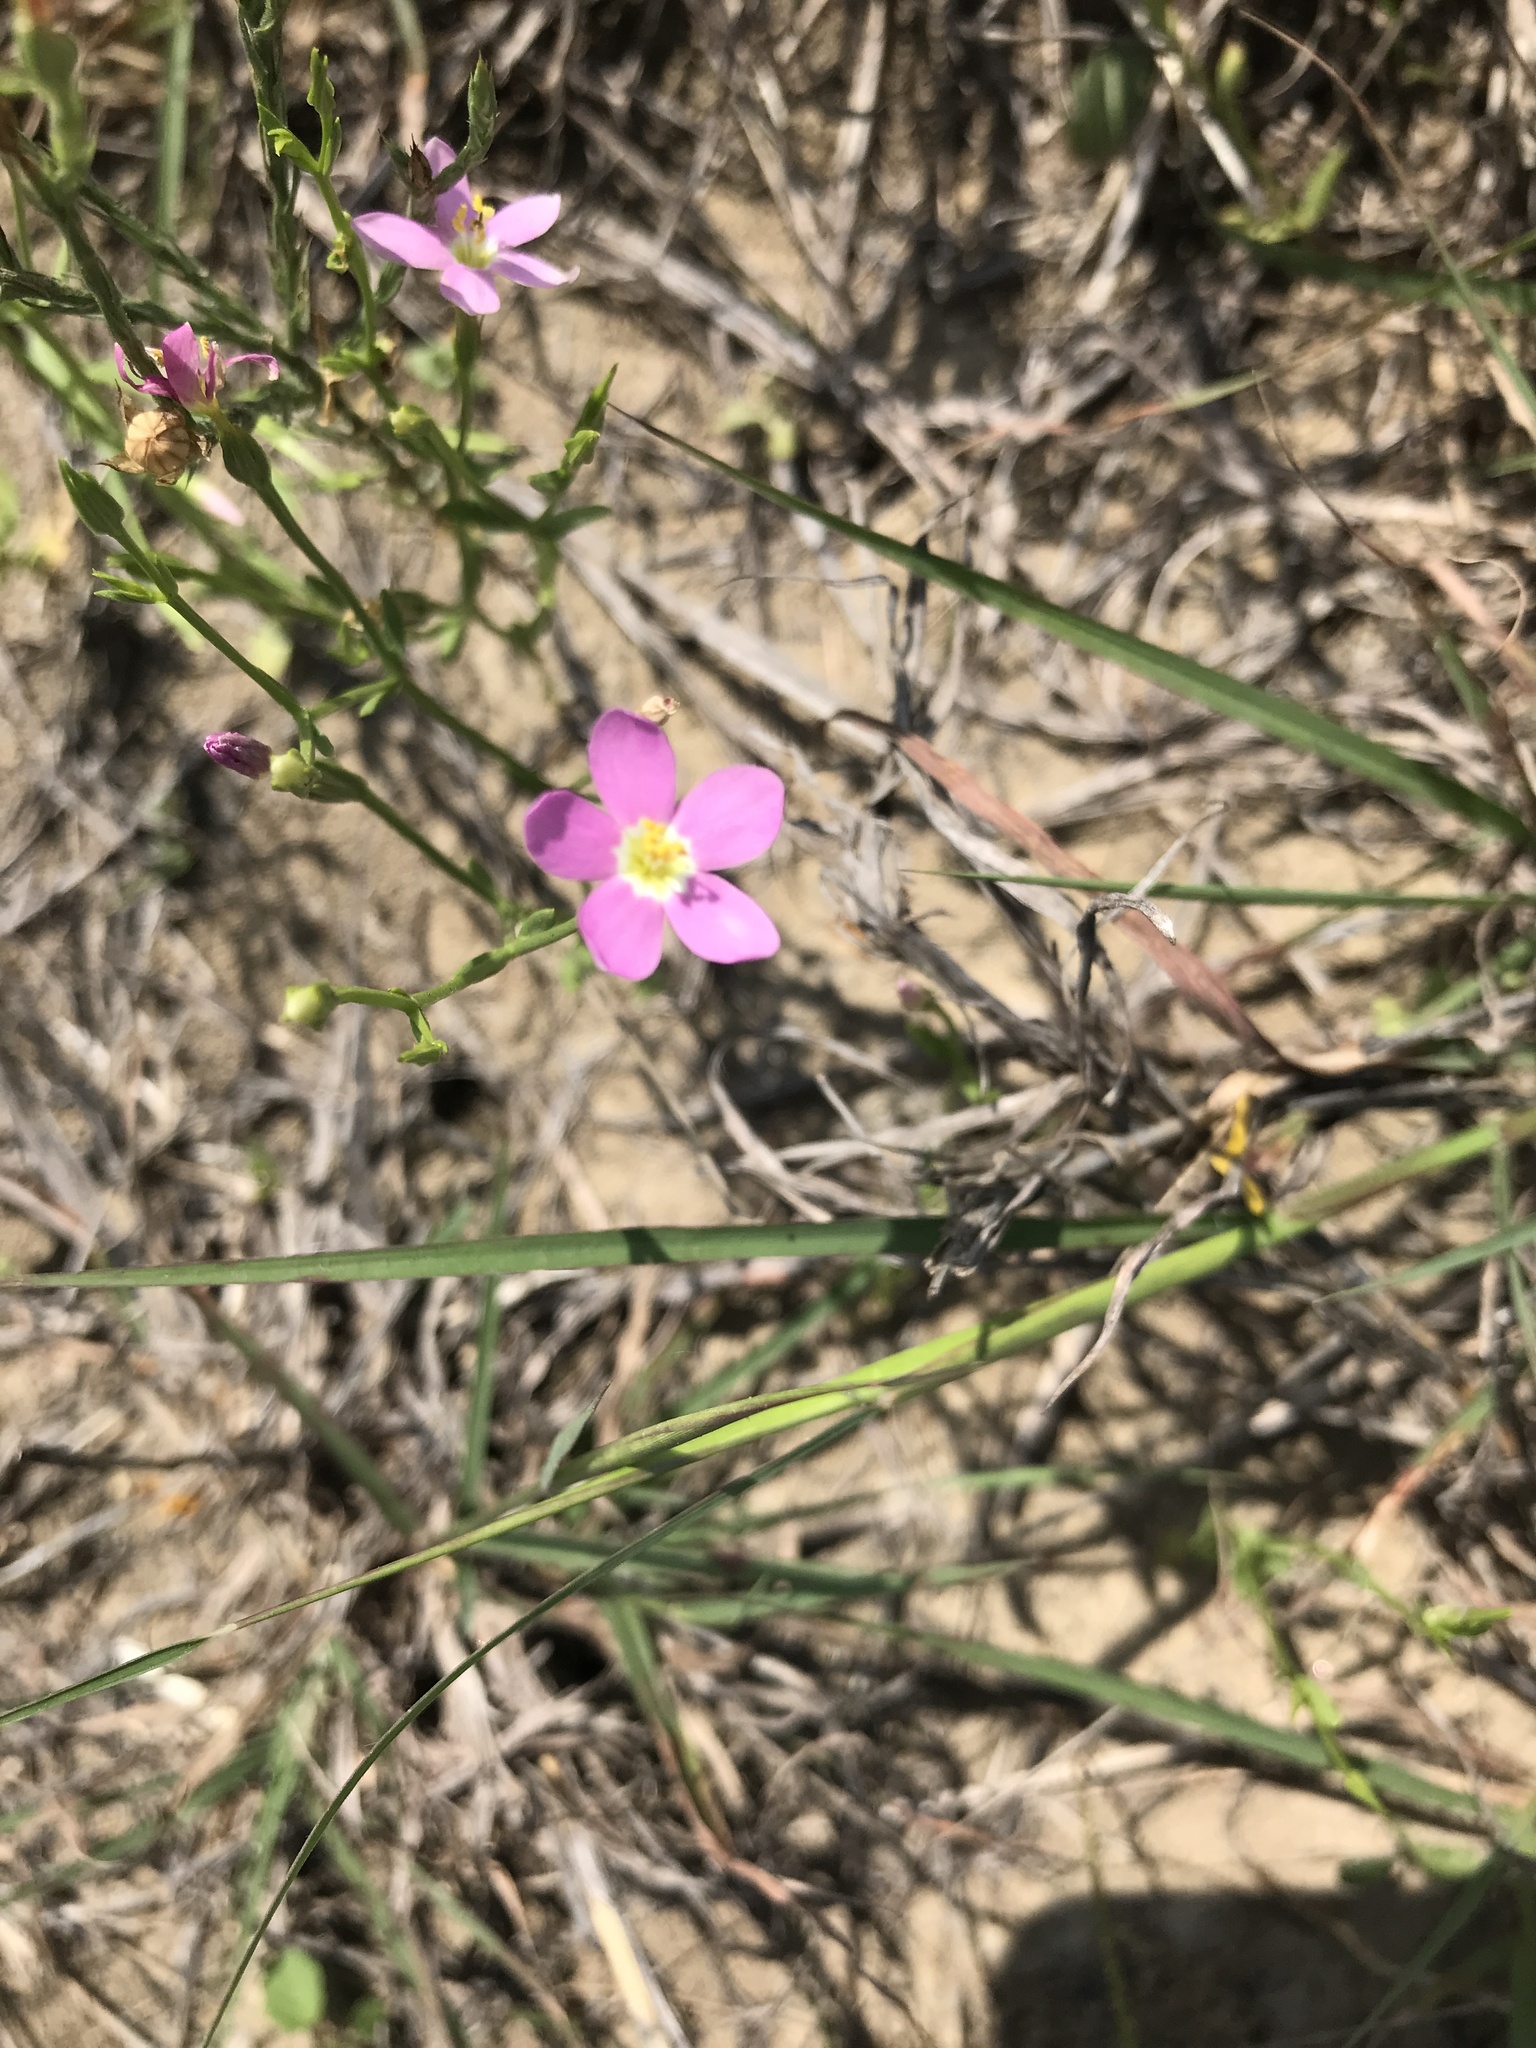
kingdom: Plantae
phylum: Tracheophyta
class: Magnoliopsida
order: Gentianales
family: Gentianaceae
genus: Sabatia
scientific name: Sabatia campestris
